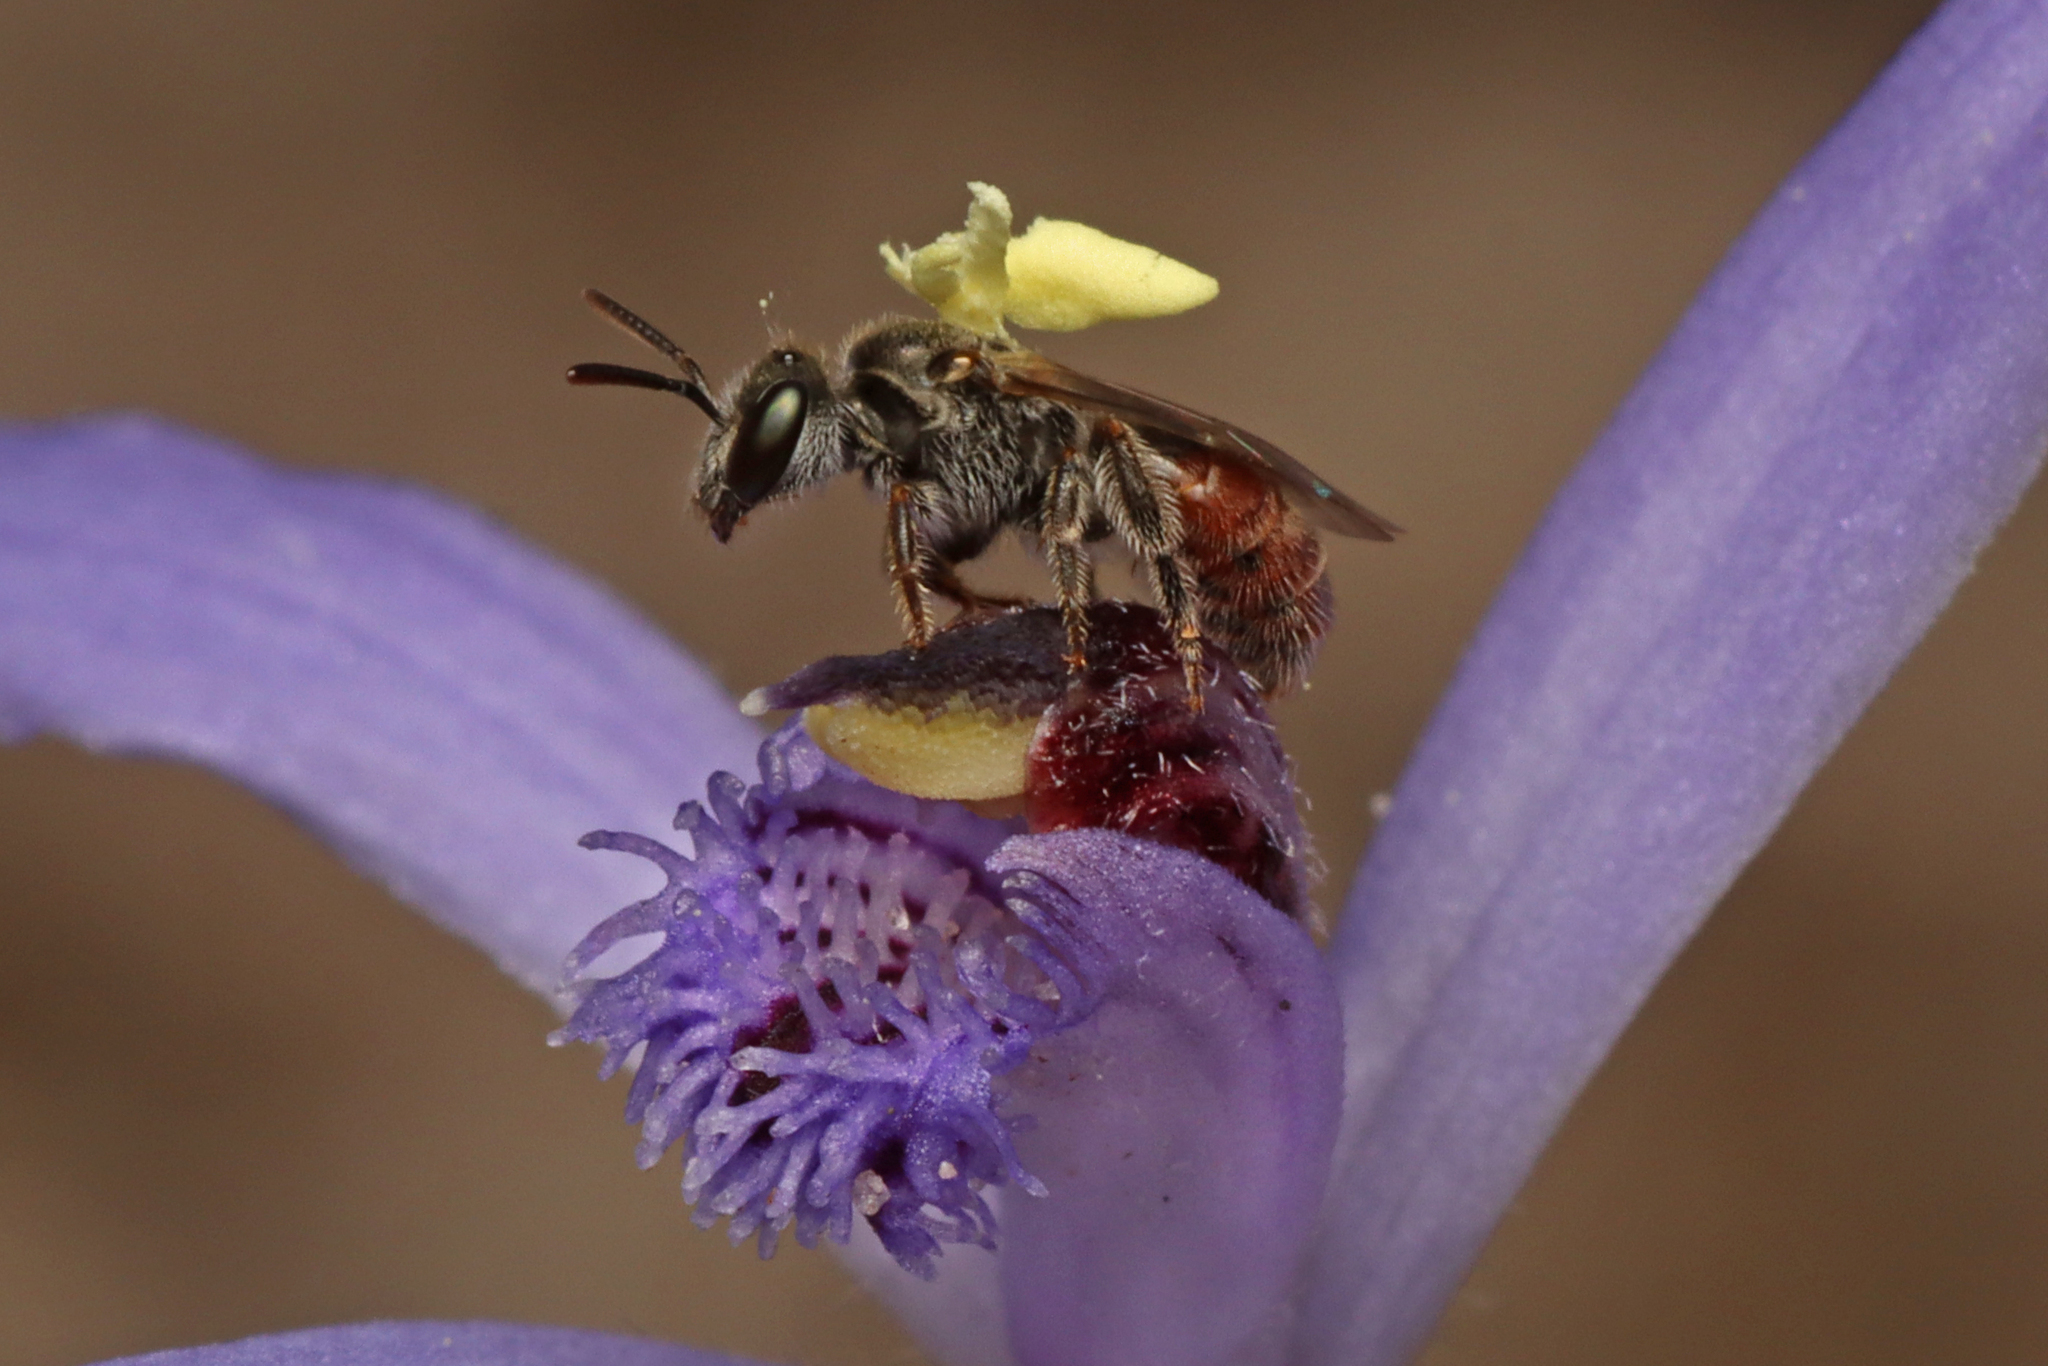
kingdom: Animalia
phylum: Arthropoda
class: Insecta
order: Hymenoptera
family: Halictidae
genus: Lasioglossum
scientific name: Lasioglossum hemichalceum
